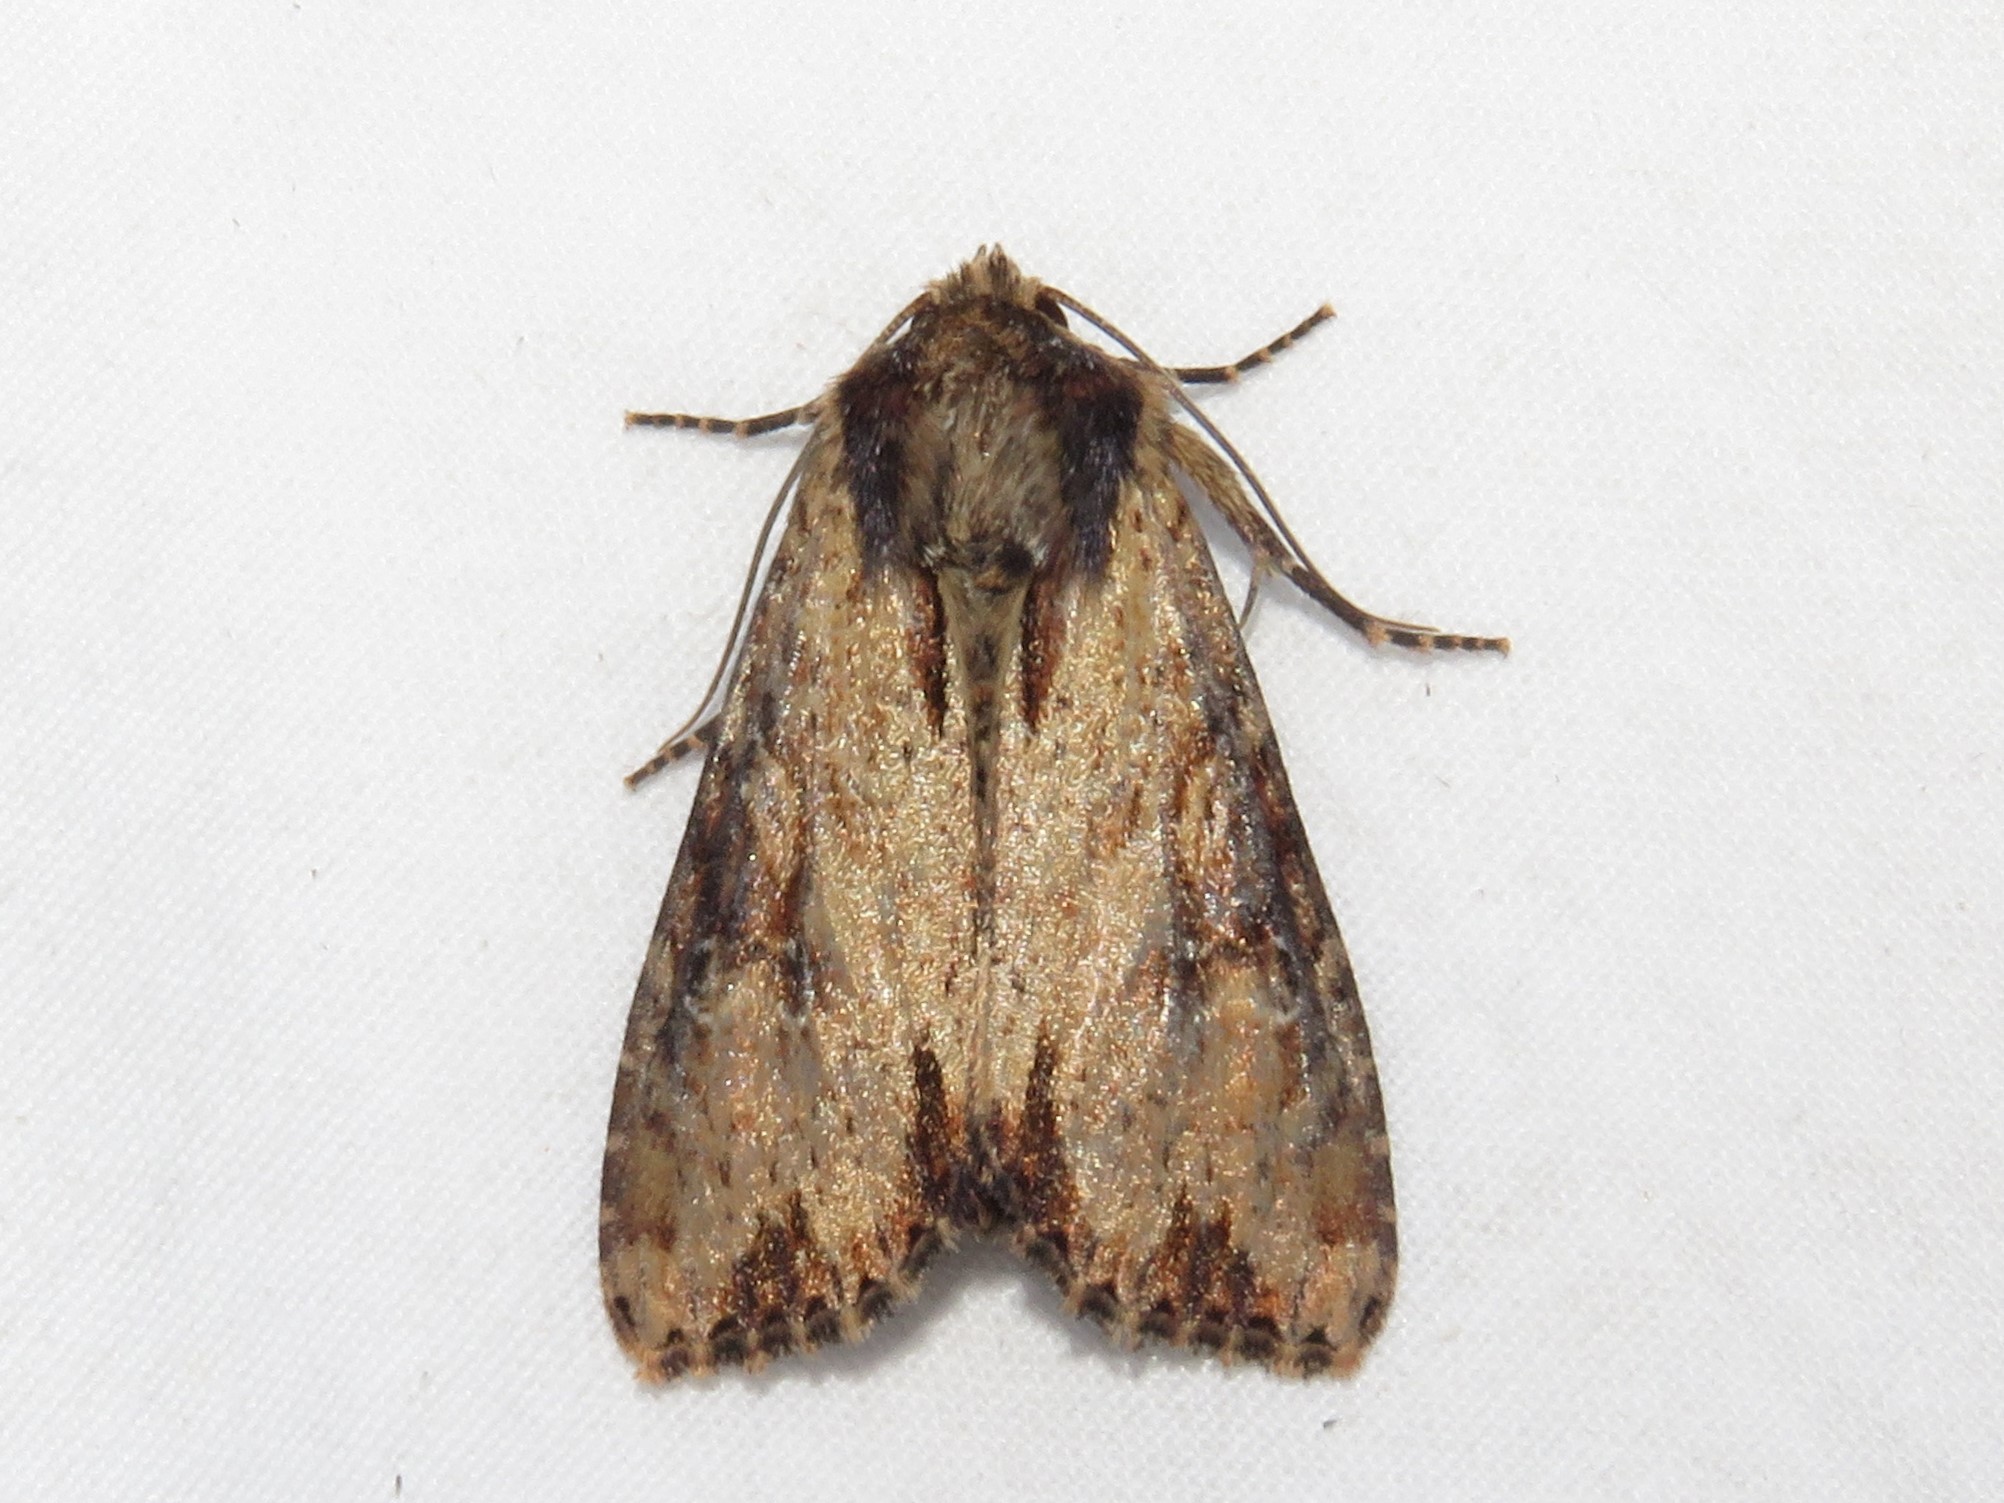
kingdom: Animalia
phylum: Arthropoda
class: Insecta
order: Lepidoptera
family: Noctuidae
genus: Apamea
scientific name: Apamea vultuosa
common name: Airy apamea moth
